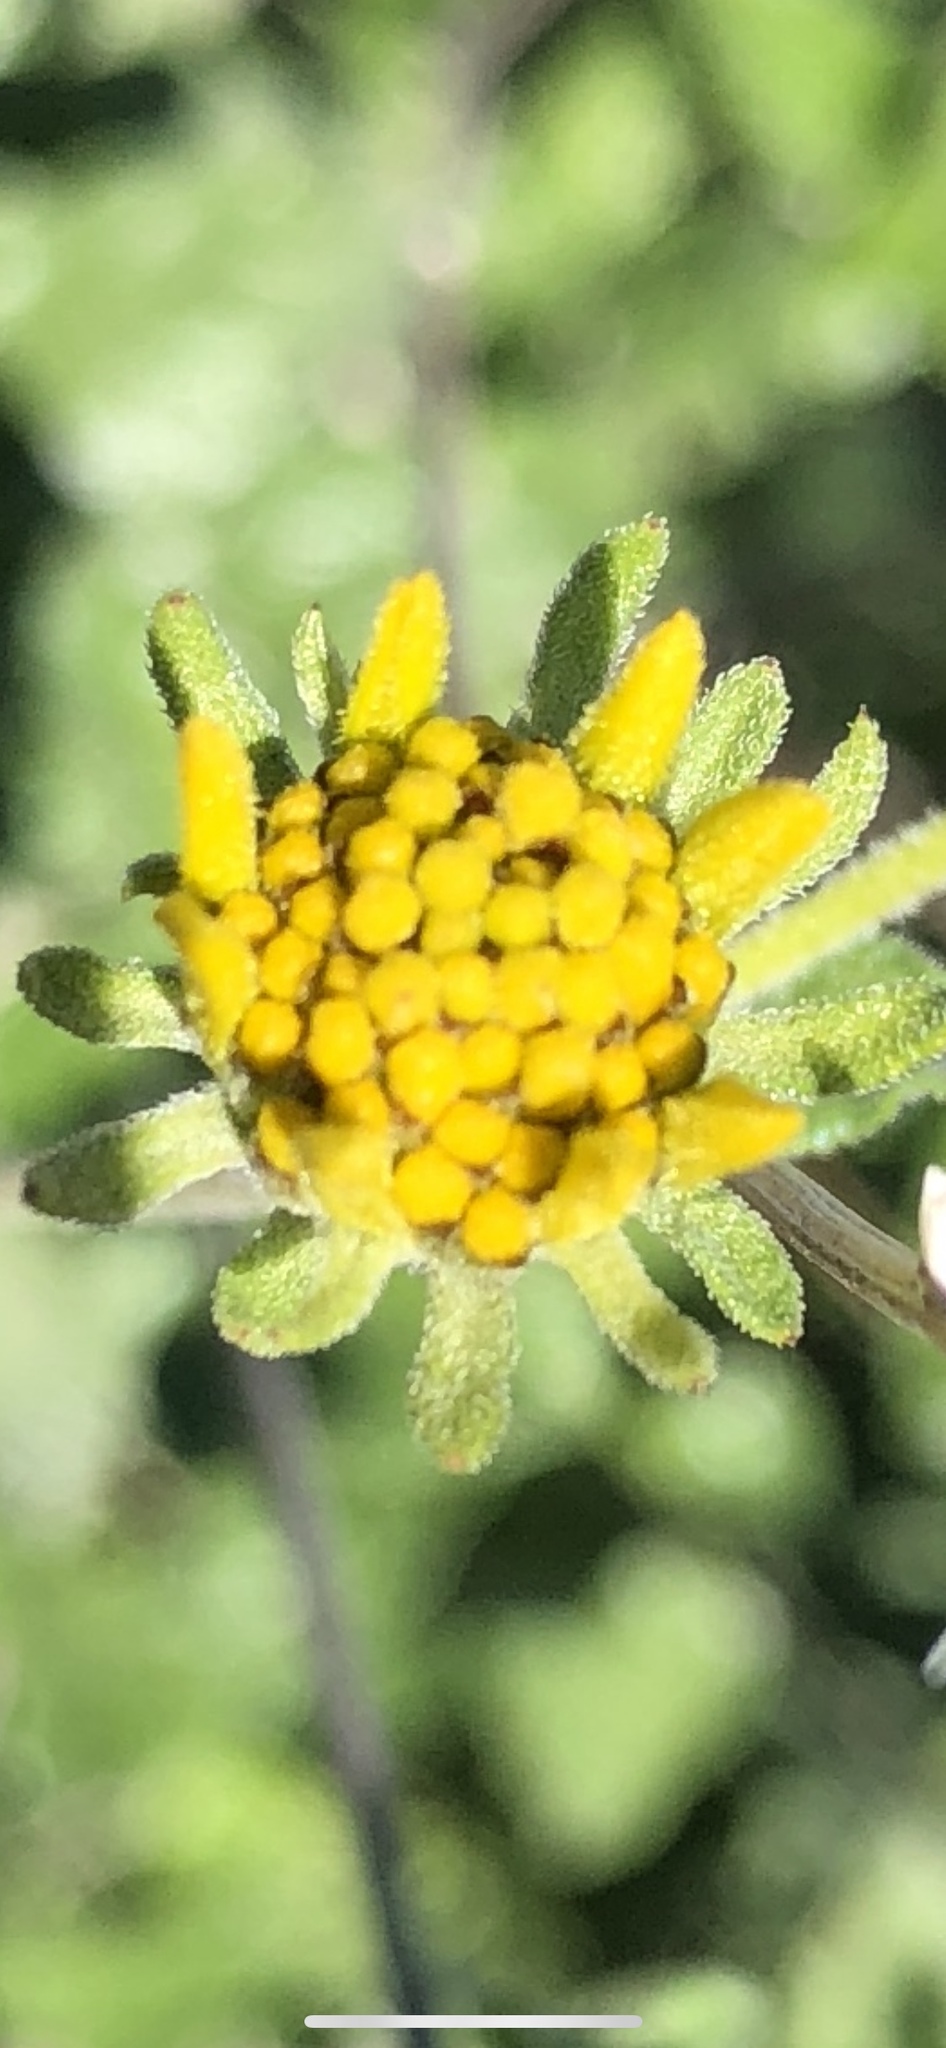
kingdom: Plantae
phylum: Tracheophyta
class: Magnoliopsida
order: Asterales
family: Asteraceae
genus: Bahiopsis
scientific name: Bahiopsis parishii
